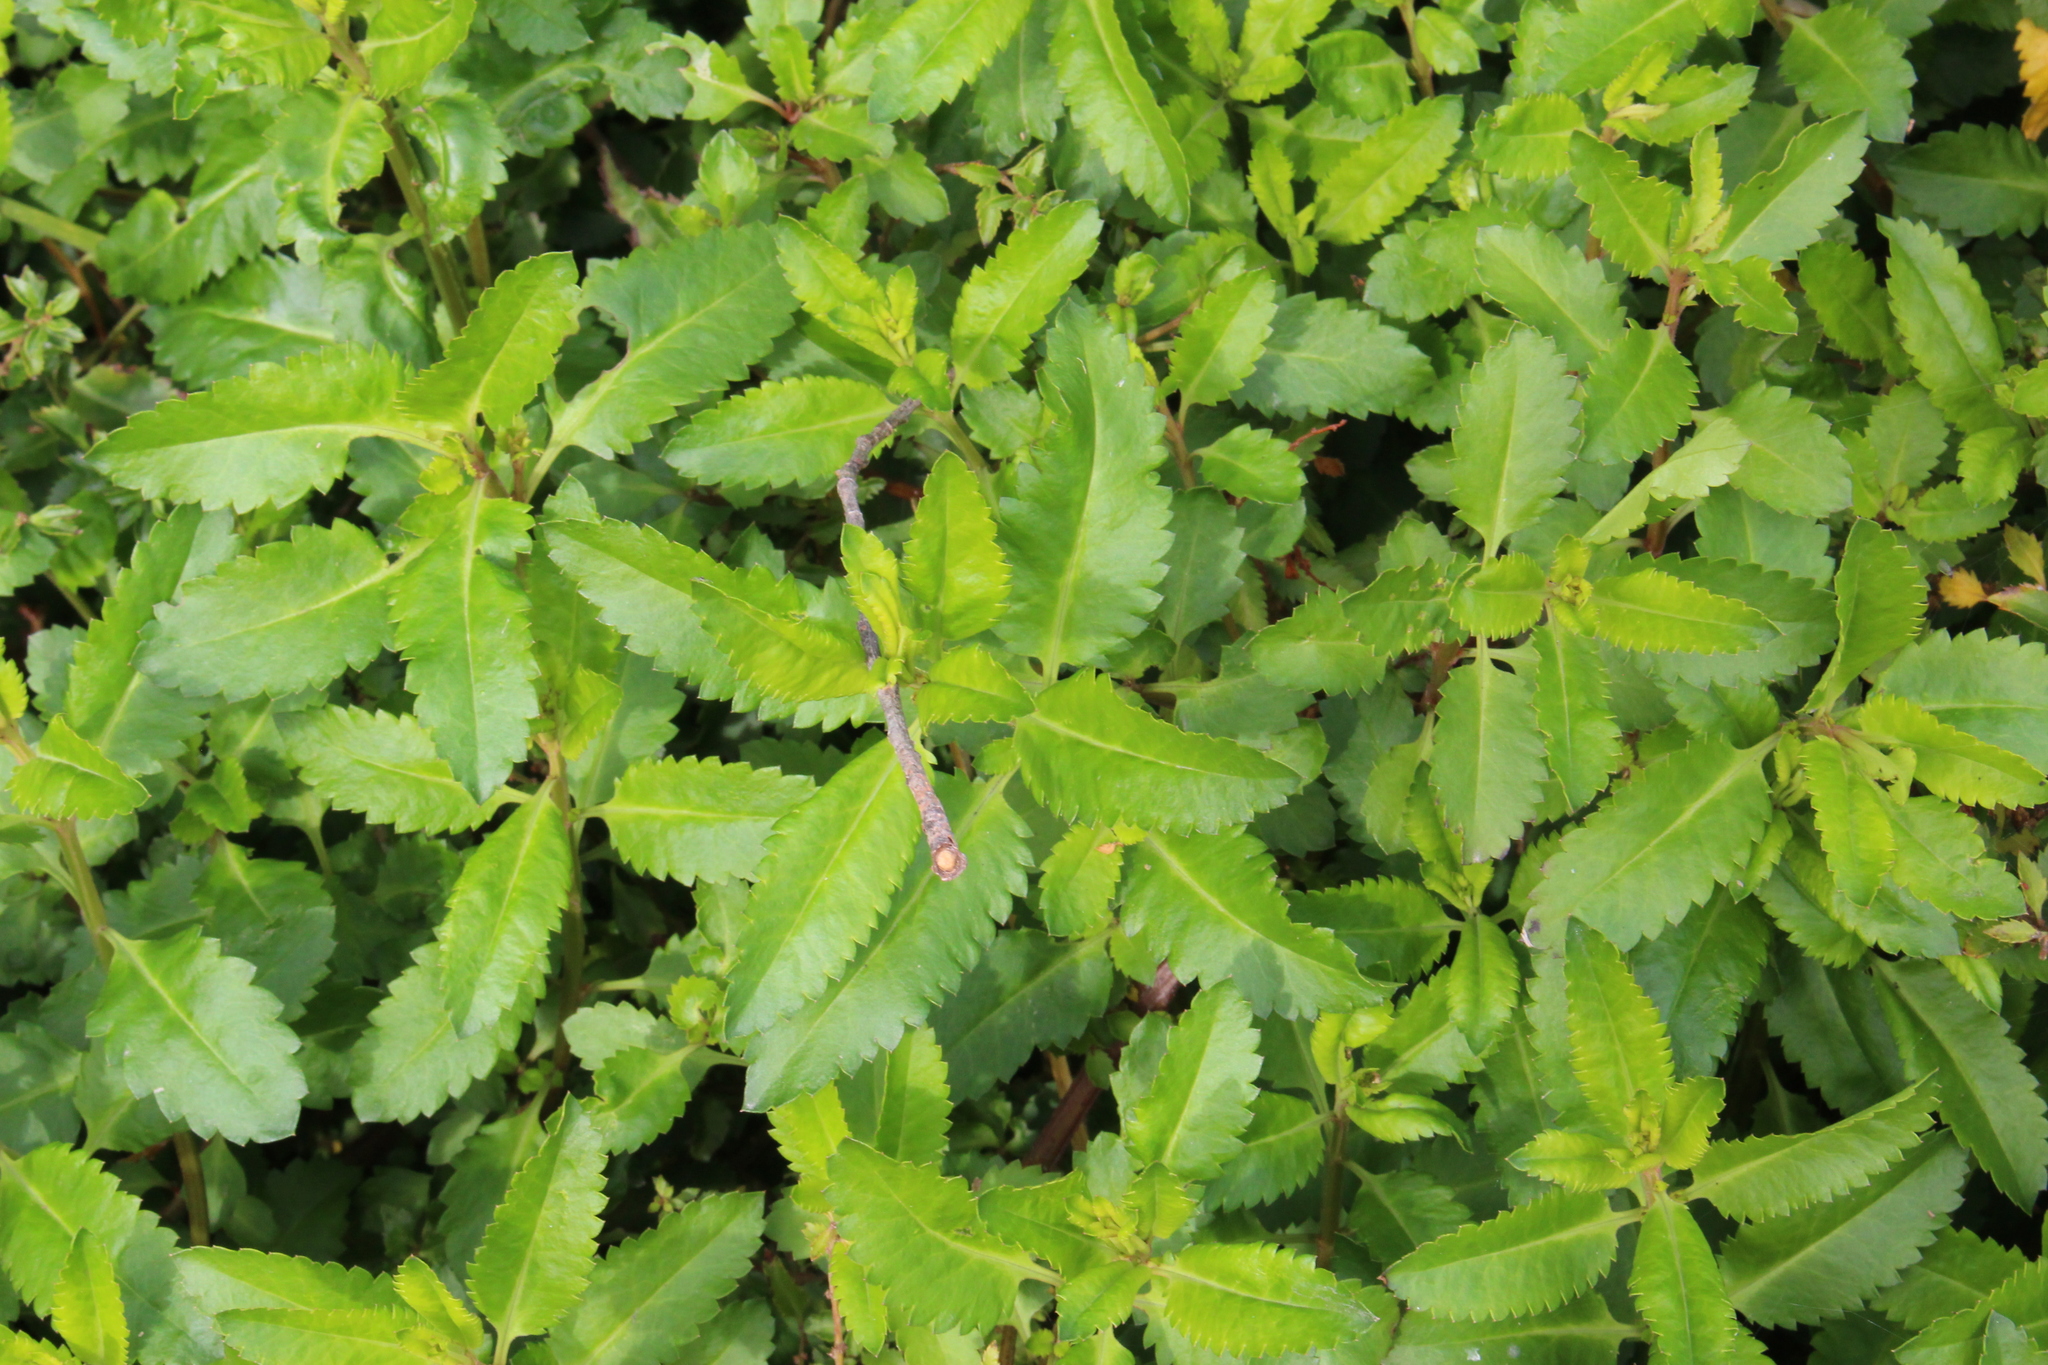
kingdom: Plantae
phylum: Tracheophyta
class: Magnoliopsida
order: Saxifragales
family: Haloragaceae
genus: Haloragis
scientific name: Haloragis erecta
